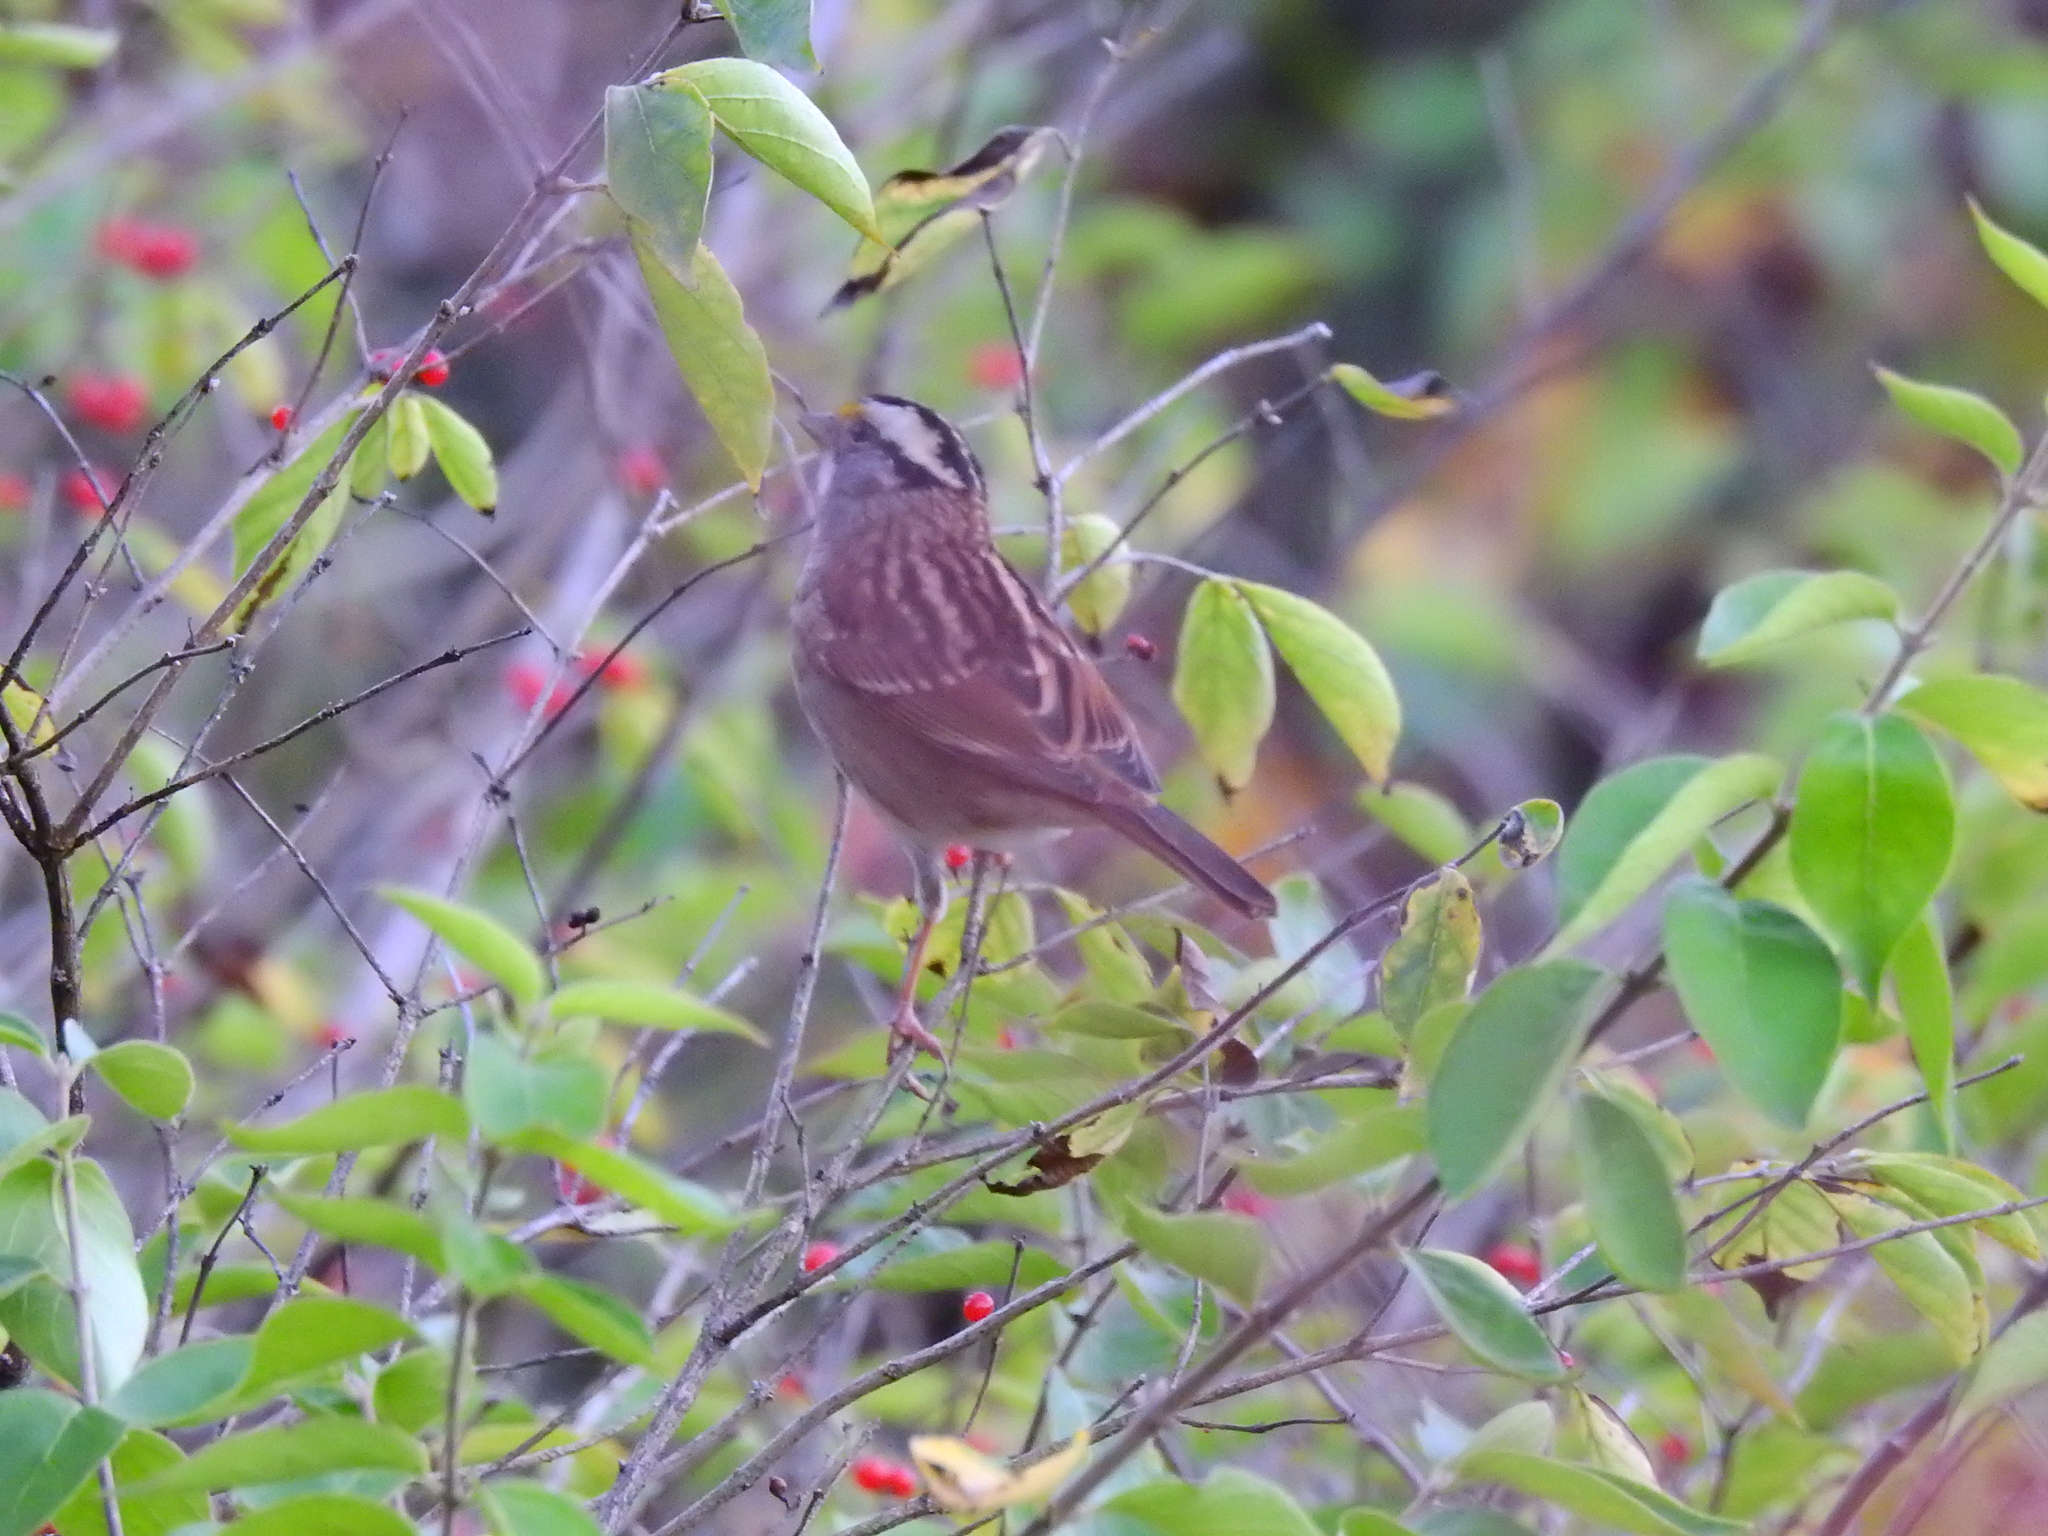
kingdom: Animalia
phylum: Chordata
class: Aves
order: Passeriformes
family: Passerellidae
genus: Zonotrichia
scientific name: Zonotrichia albicollis
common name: White-throated sparrow
